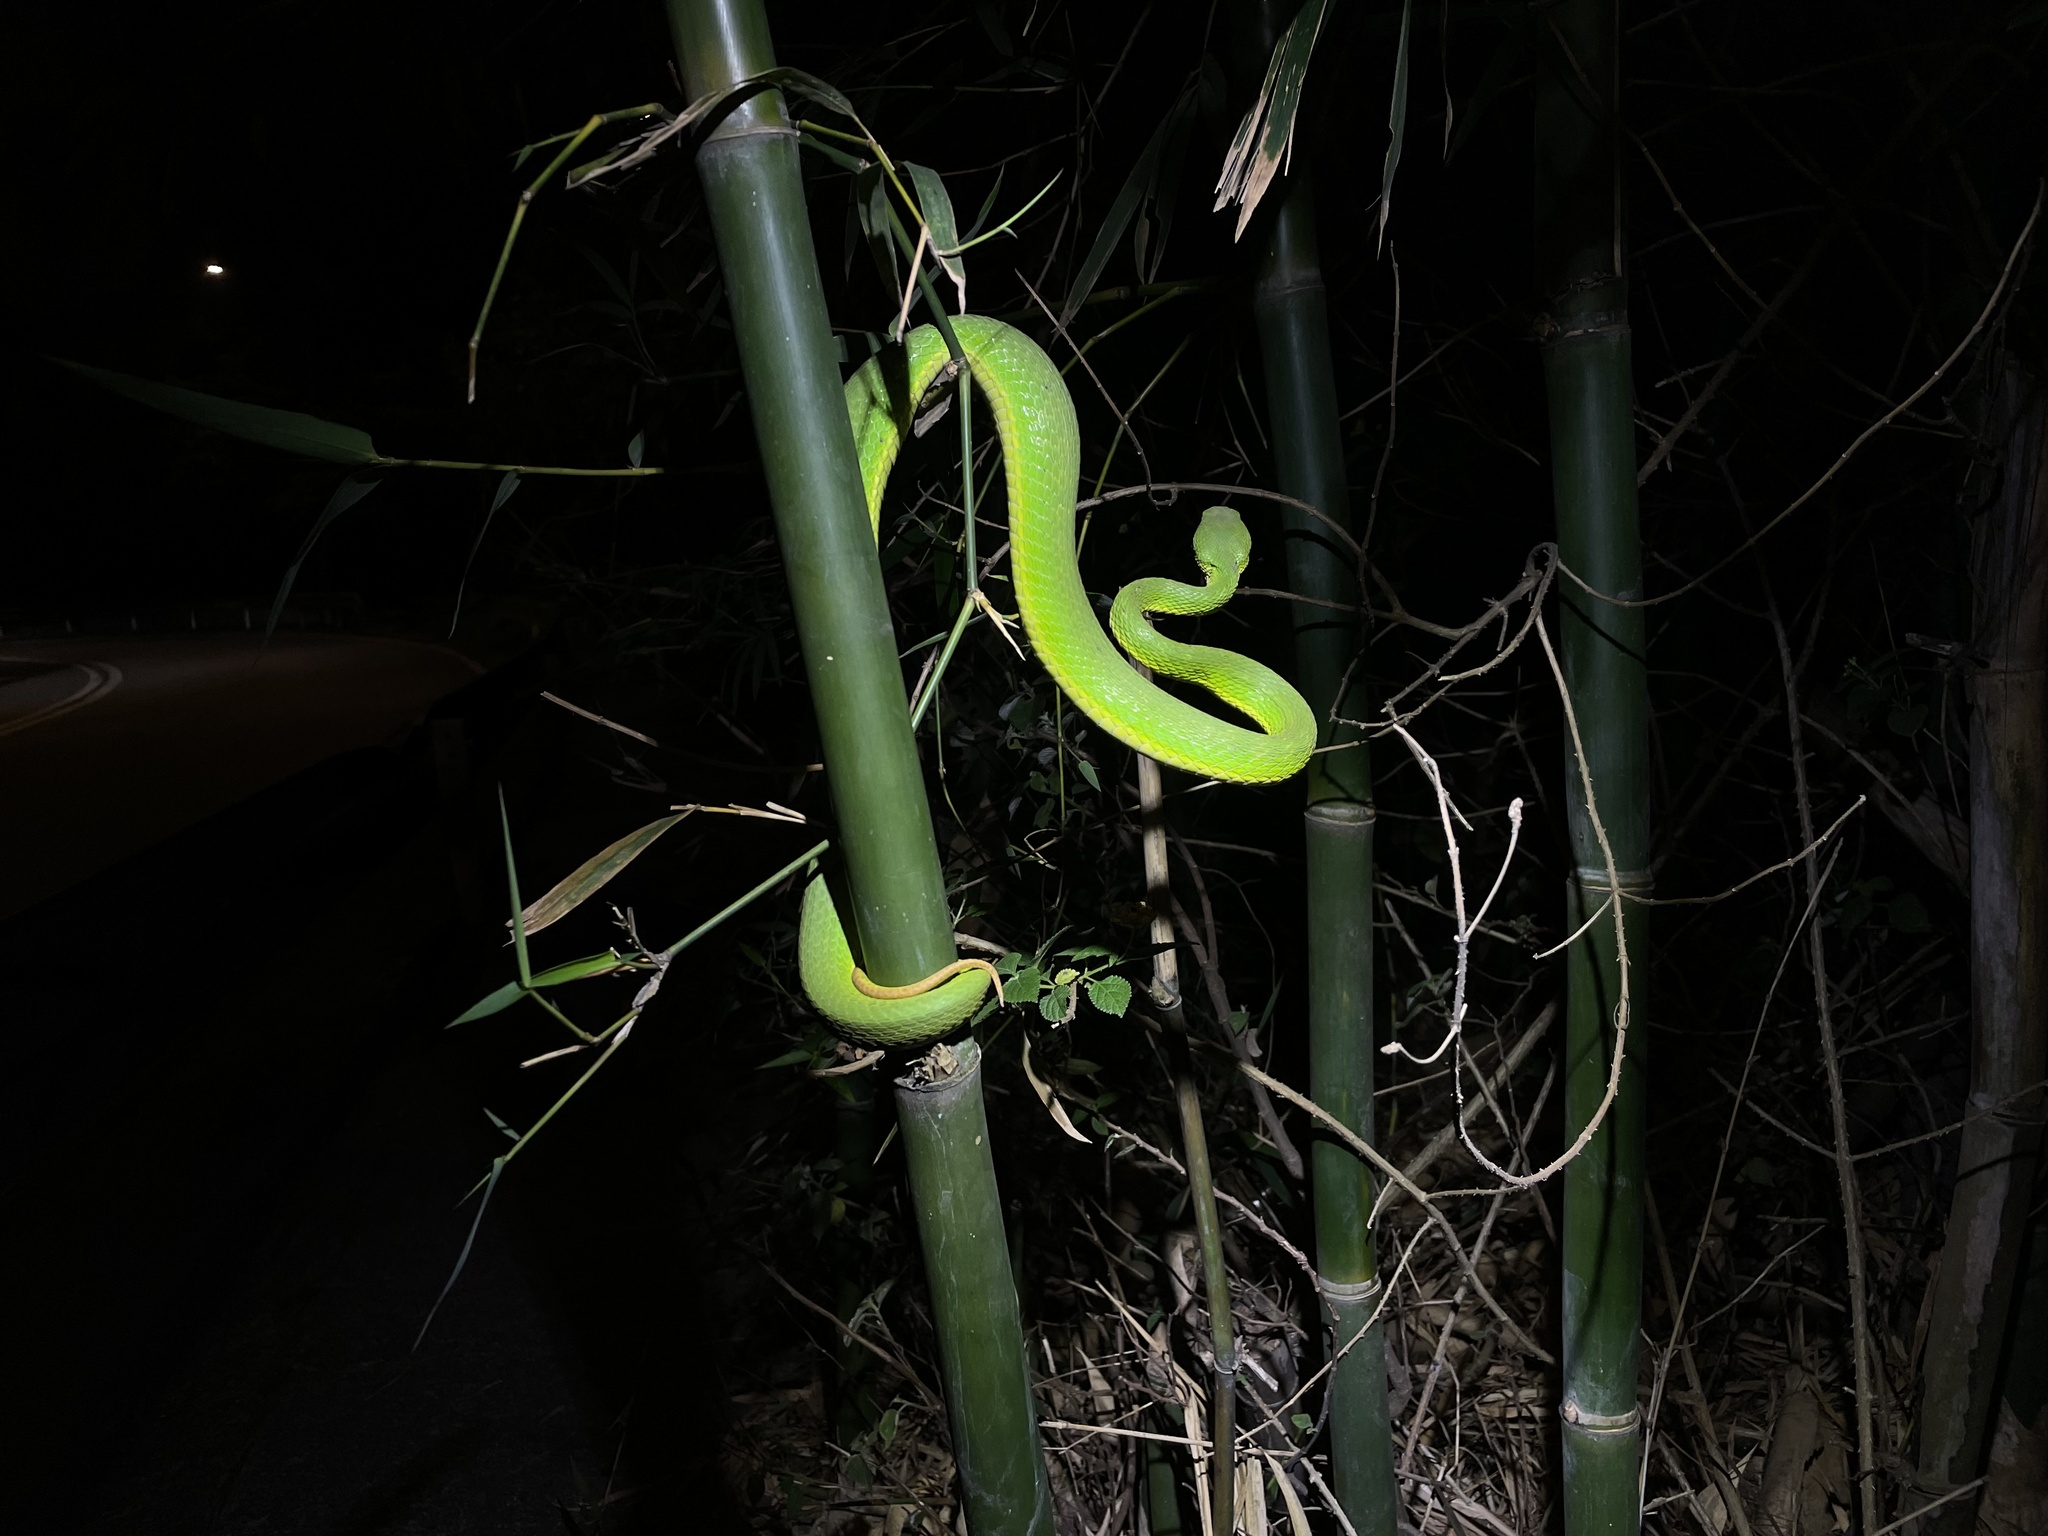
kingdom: Animalia
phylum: Chordata
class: Squamata
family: Viperidae
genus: Trimeresurus
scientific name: Trimeresurus albolabris
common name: White-lipped pitviper
